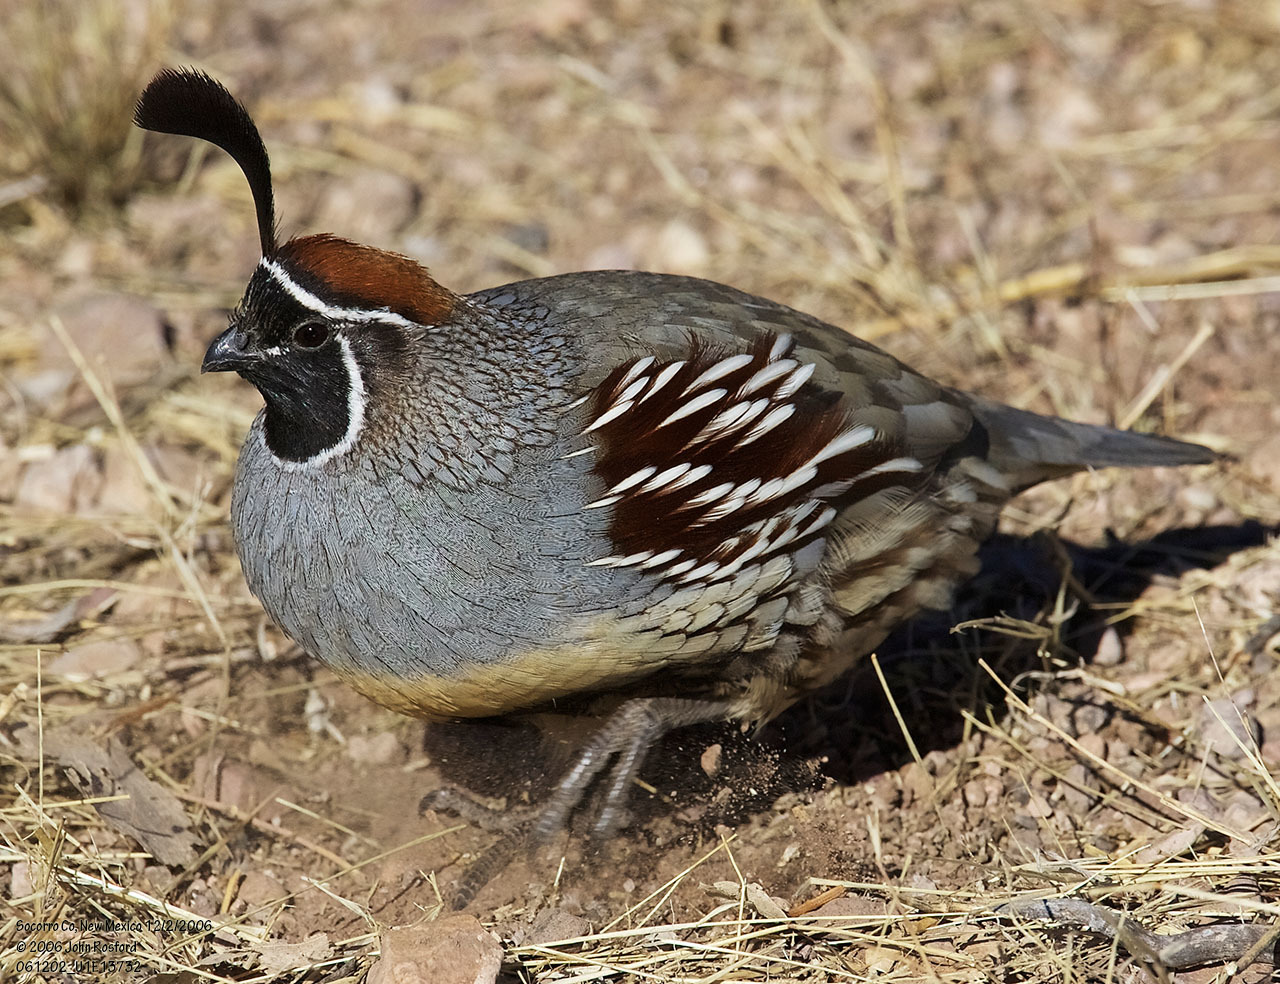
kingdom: Animalia
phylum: Chordata
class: Aves
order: Galliformes
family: Odontophoridae
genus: Callipepla
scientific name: Callipepla gambelii
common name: Gambel's quail
